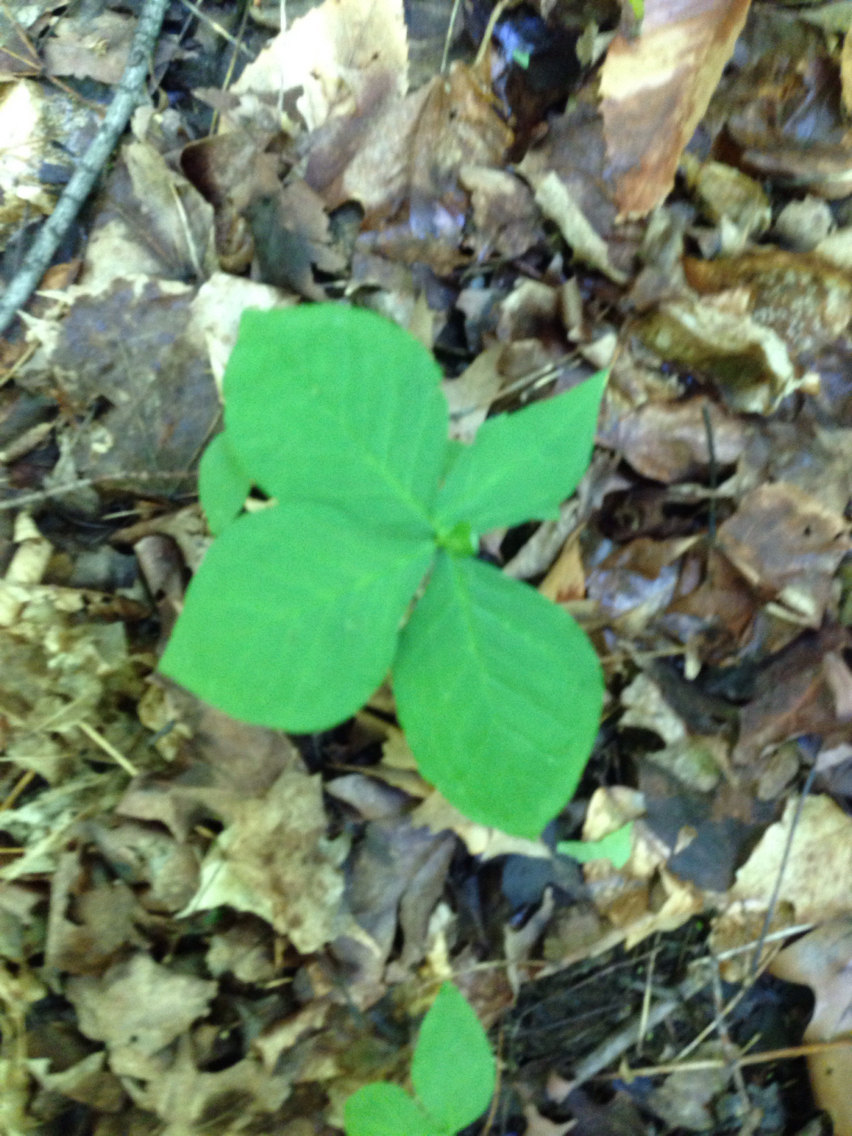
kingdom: Plantae
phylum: Tracheophyta
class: Liliopsida
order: Alismatales
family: Araceae
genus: Arisaema
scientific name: Arisaema triphyllum
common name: Jack-in-the-pulpit
